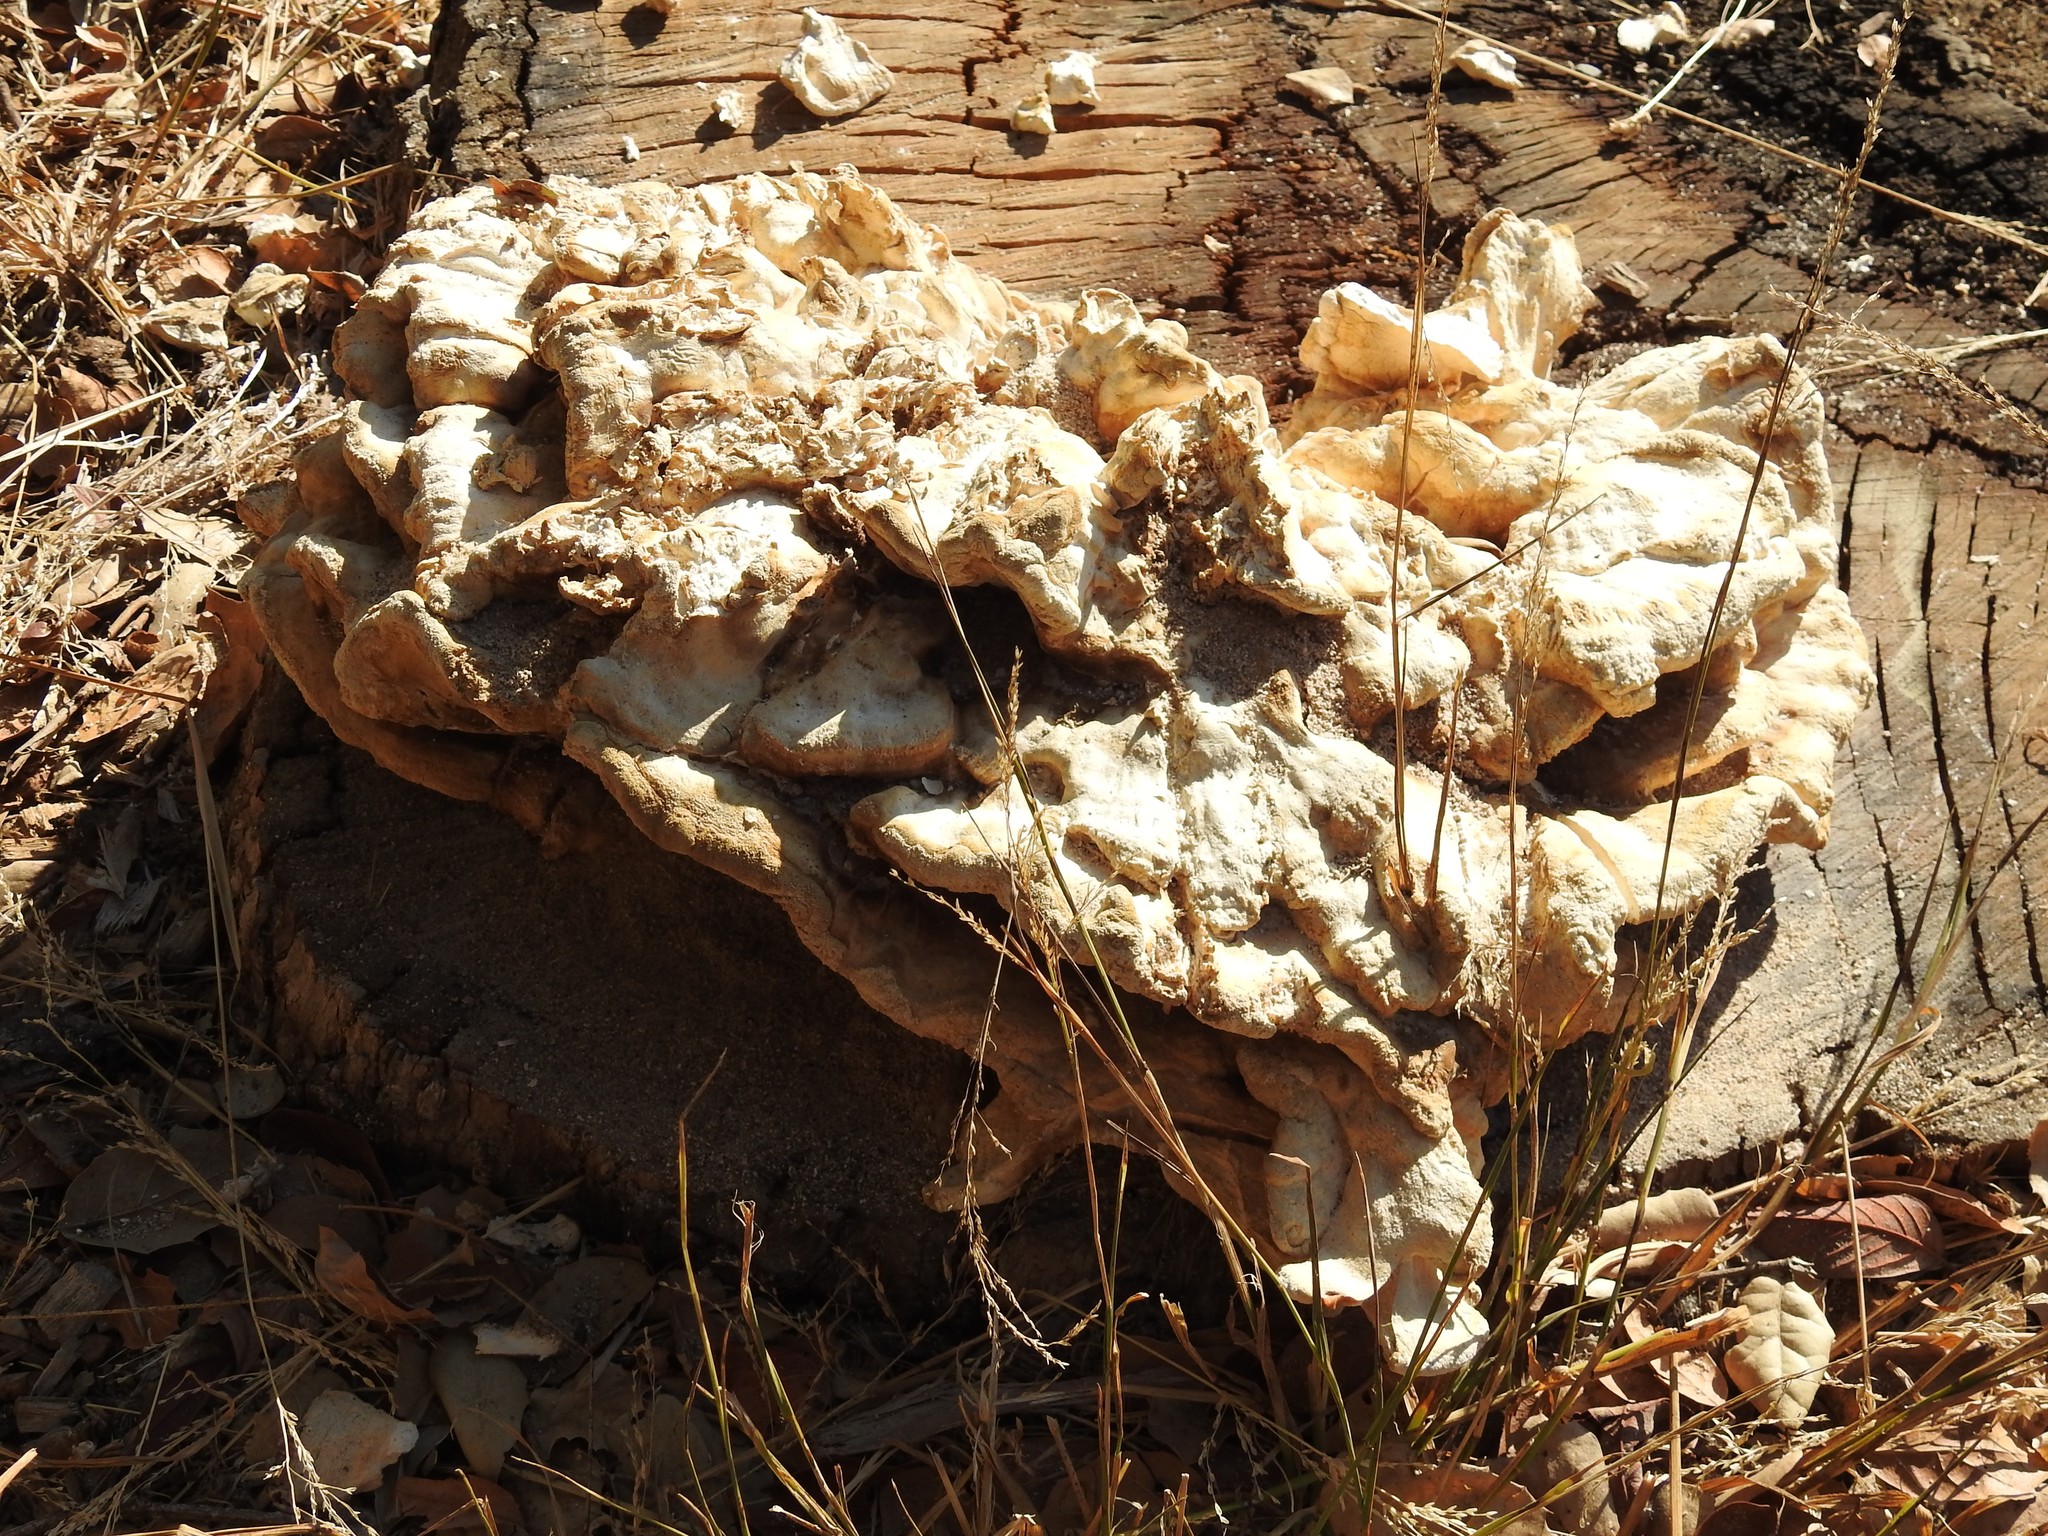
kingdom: Fungi
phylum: Basidiomycota
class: Agaricomycetes
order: Polyporales
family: Laetiporaceae
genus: Laetiporus
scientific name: Laetiporus gilbertsonii
